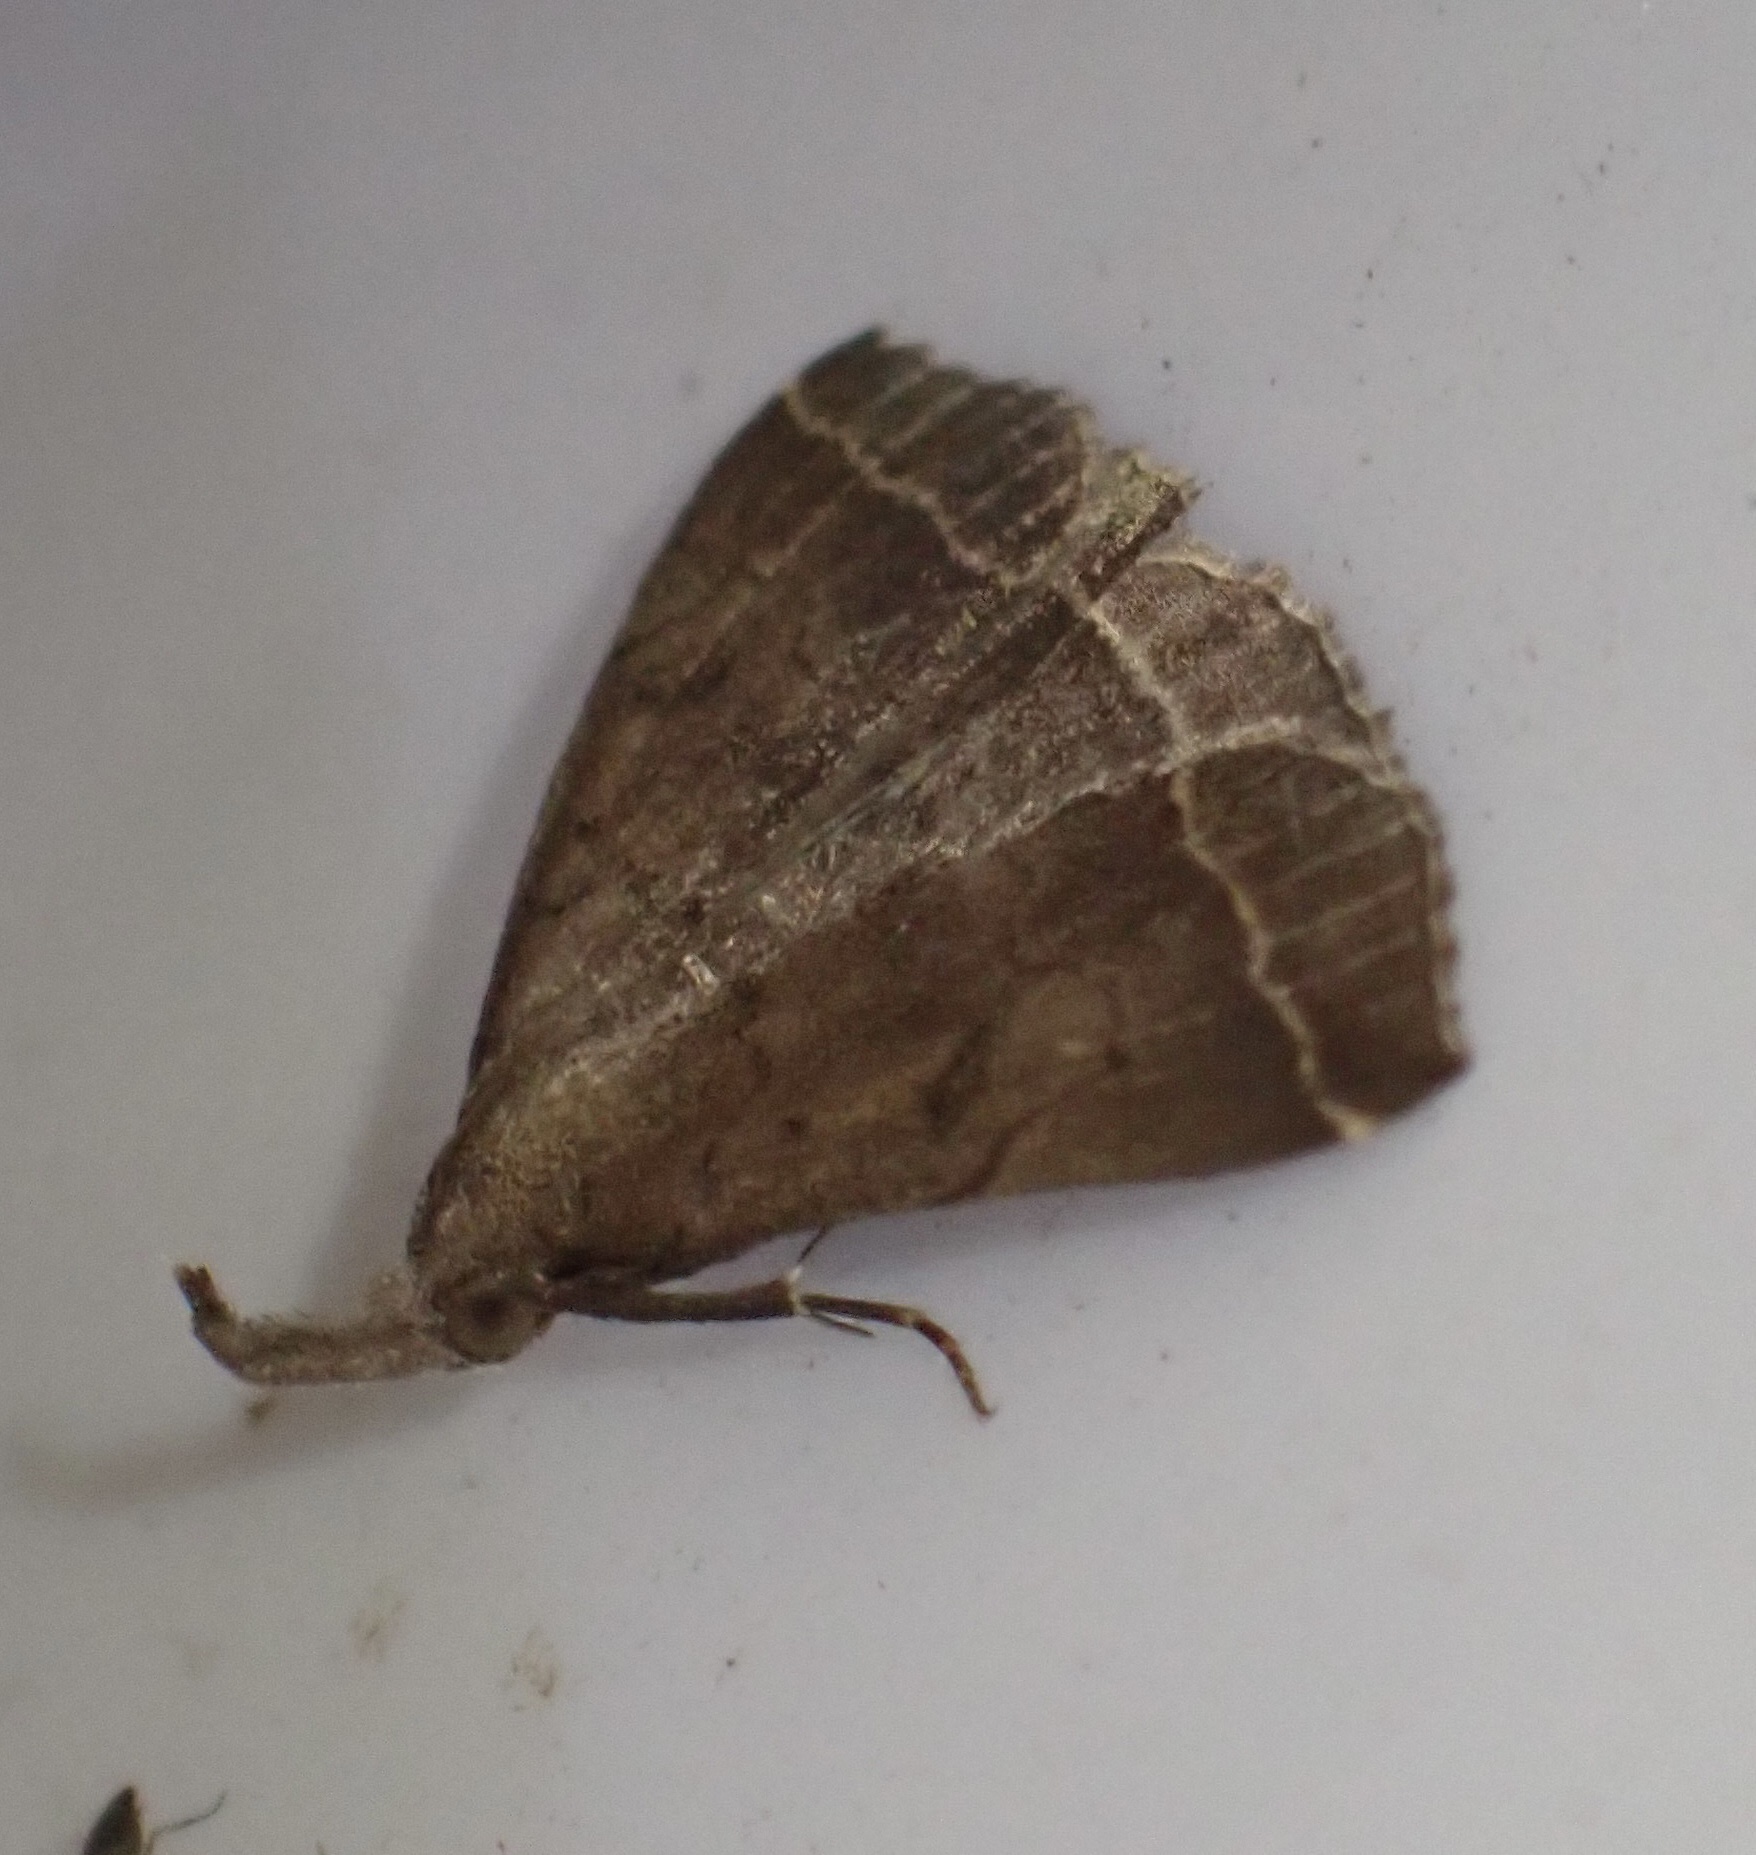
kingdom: Animalia
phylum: Arthropoda
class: Insecta
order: Lepidoptera
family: Erebidae
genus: Pechipogo
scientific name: Pechipogo plumigeralis
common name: Plumed fan-foot
